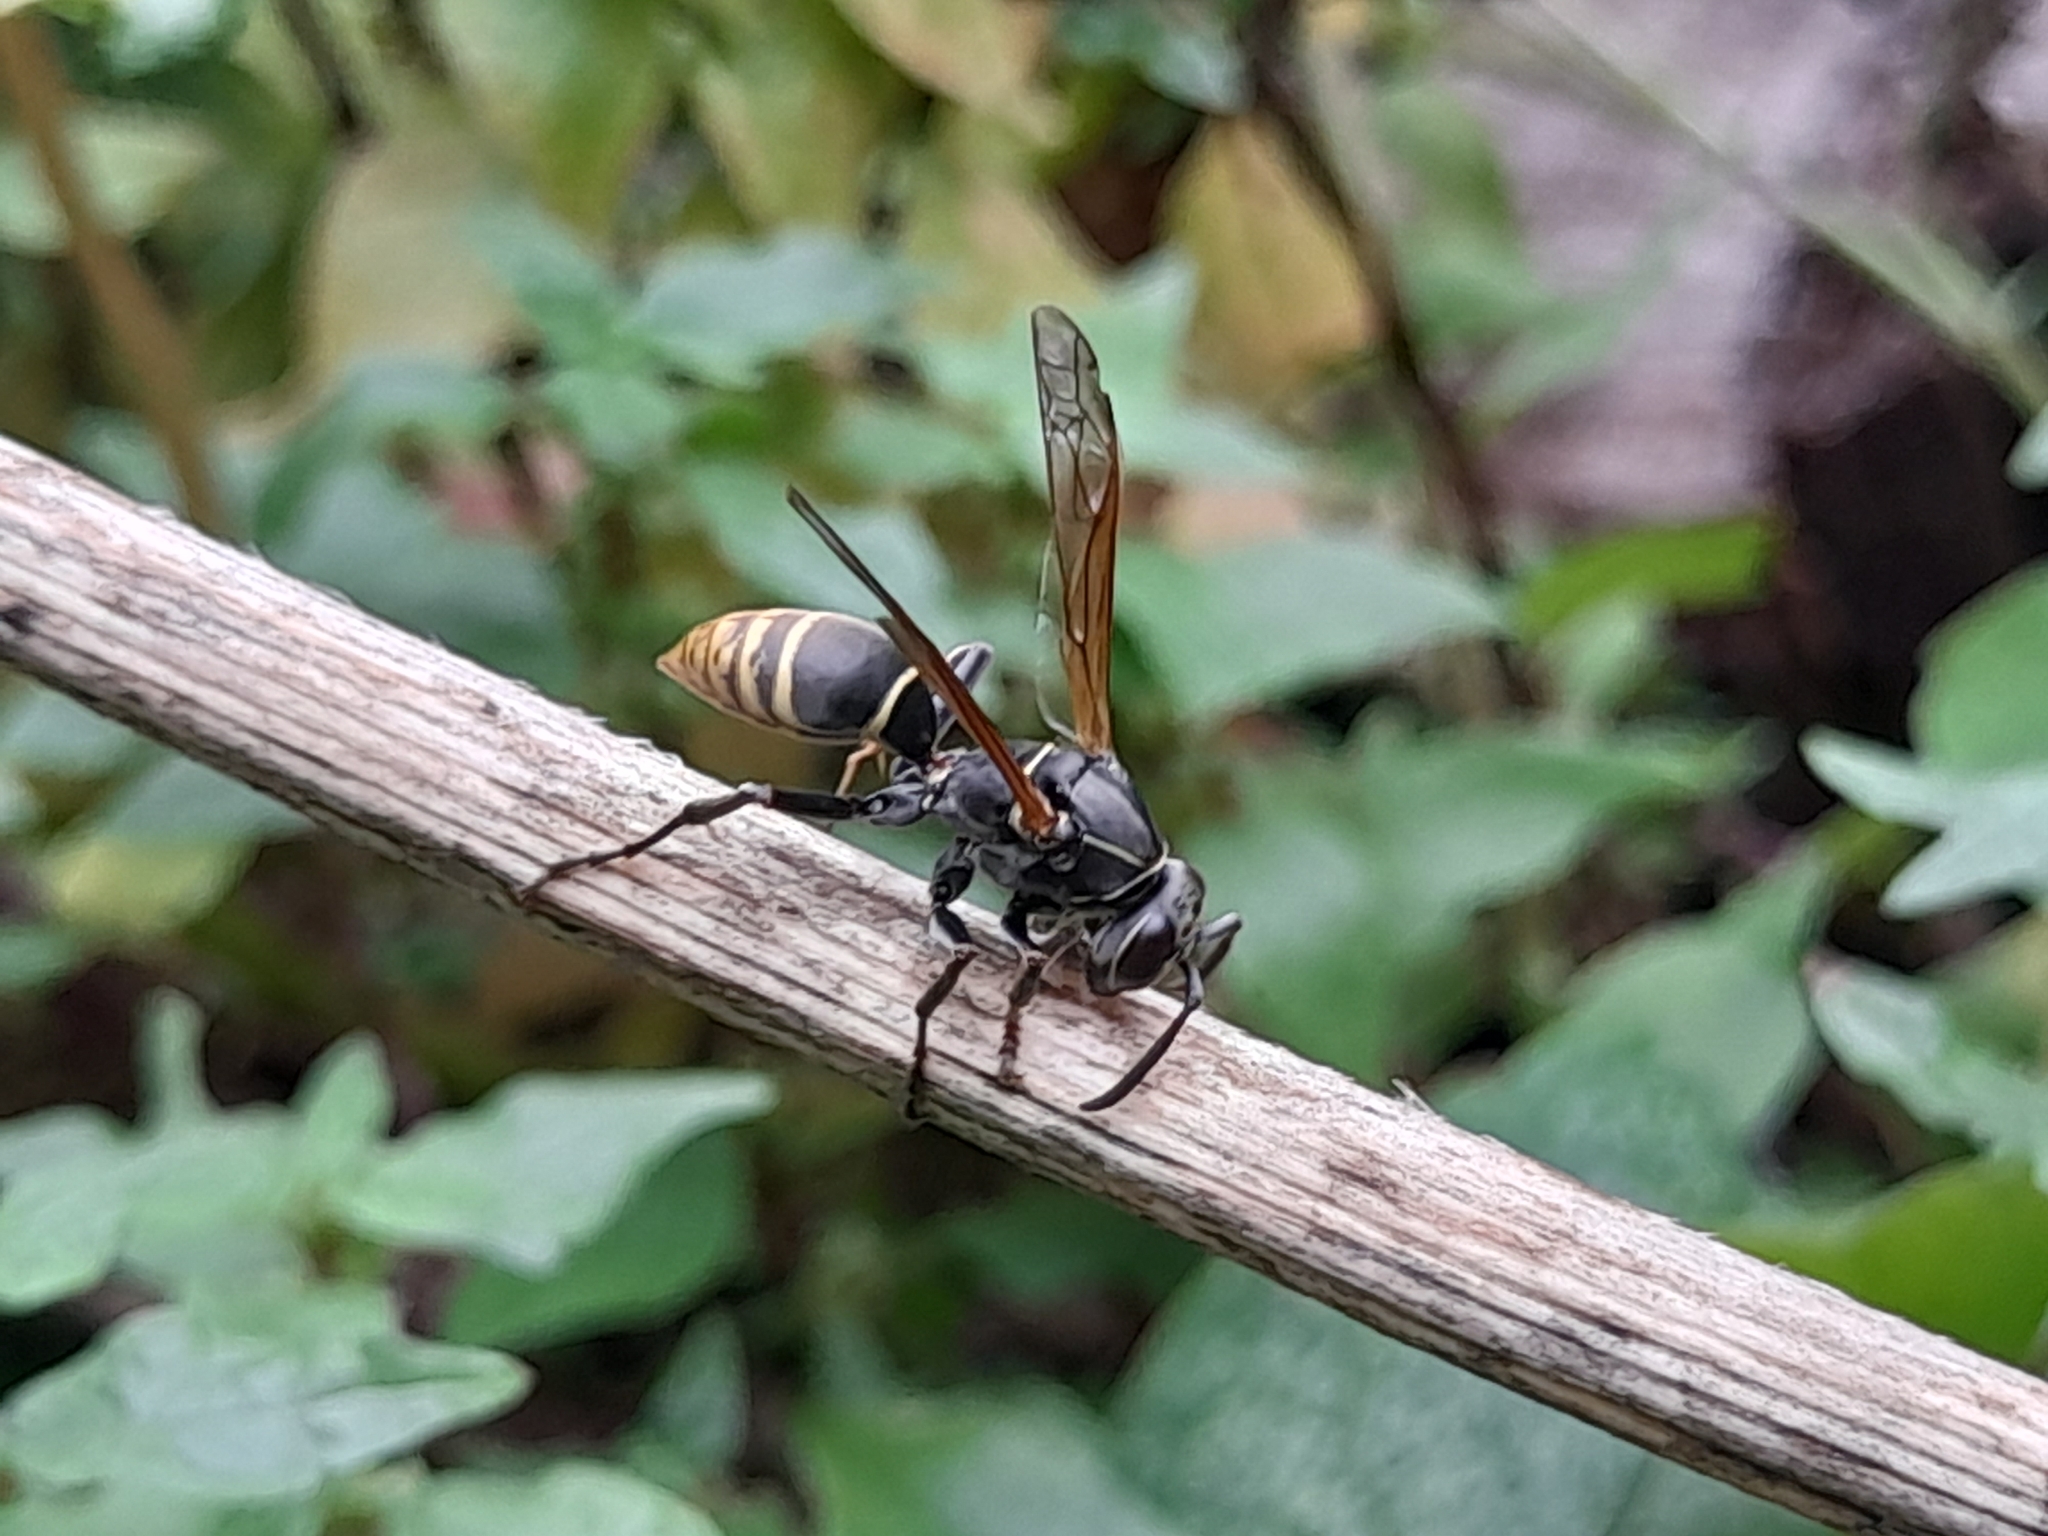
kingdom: Animalia
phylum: Arthropoda
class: Insecta
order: Hymenoptera
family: Eumenidae
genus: Polistes
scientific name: Polistes cinerascens
